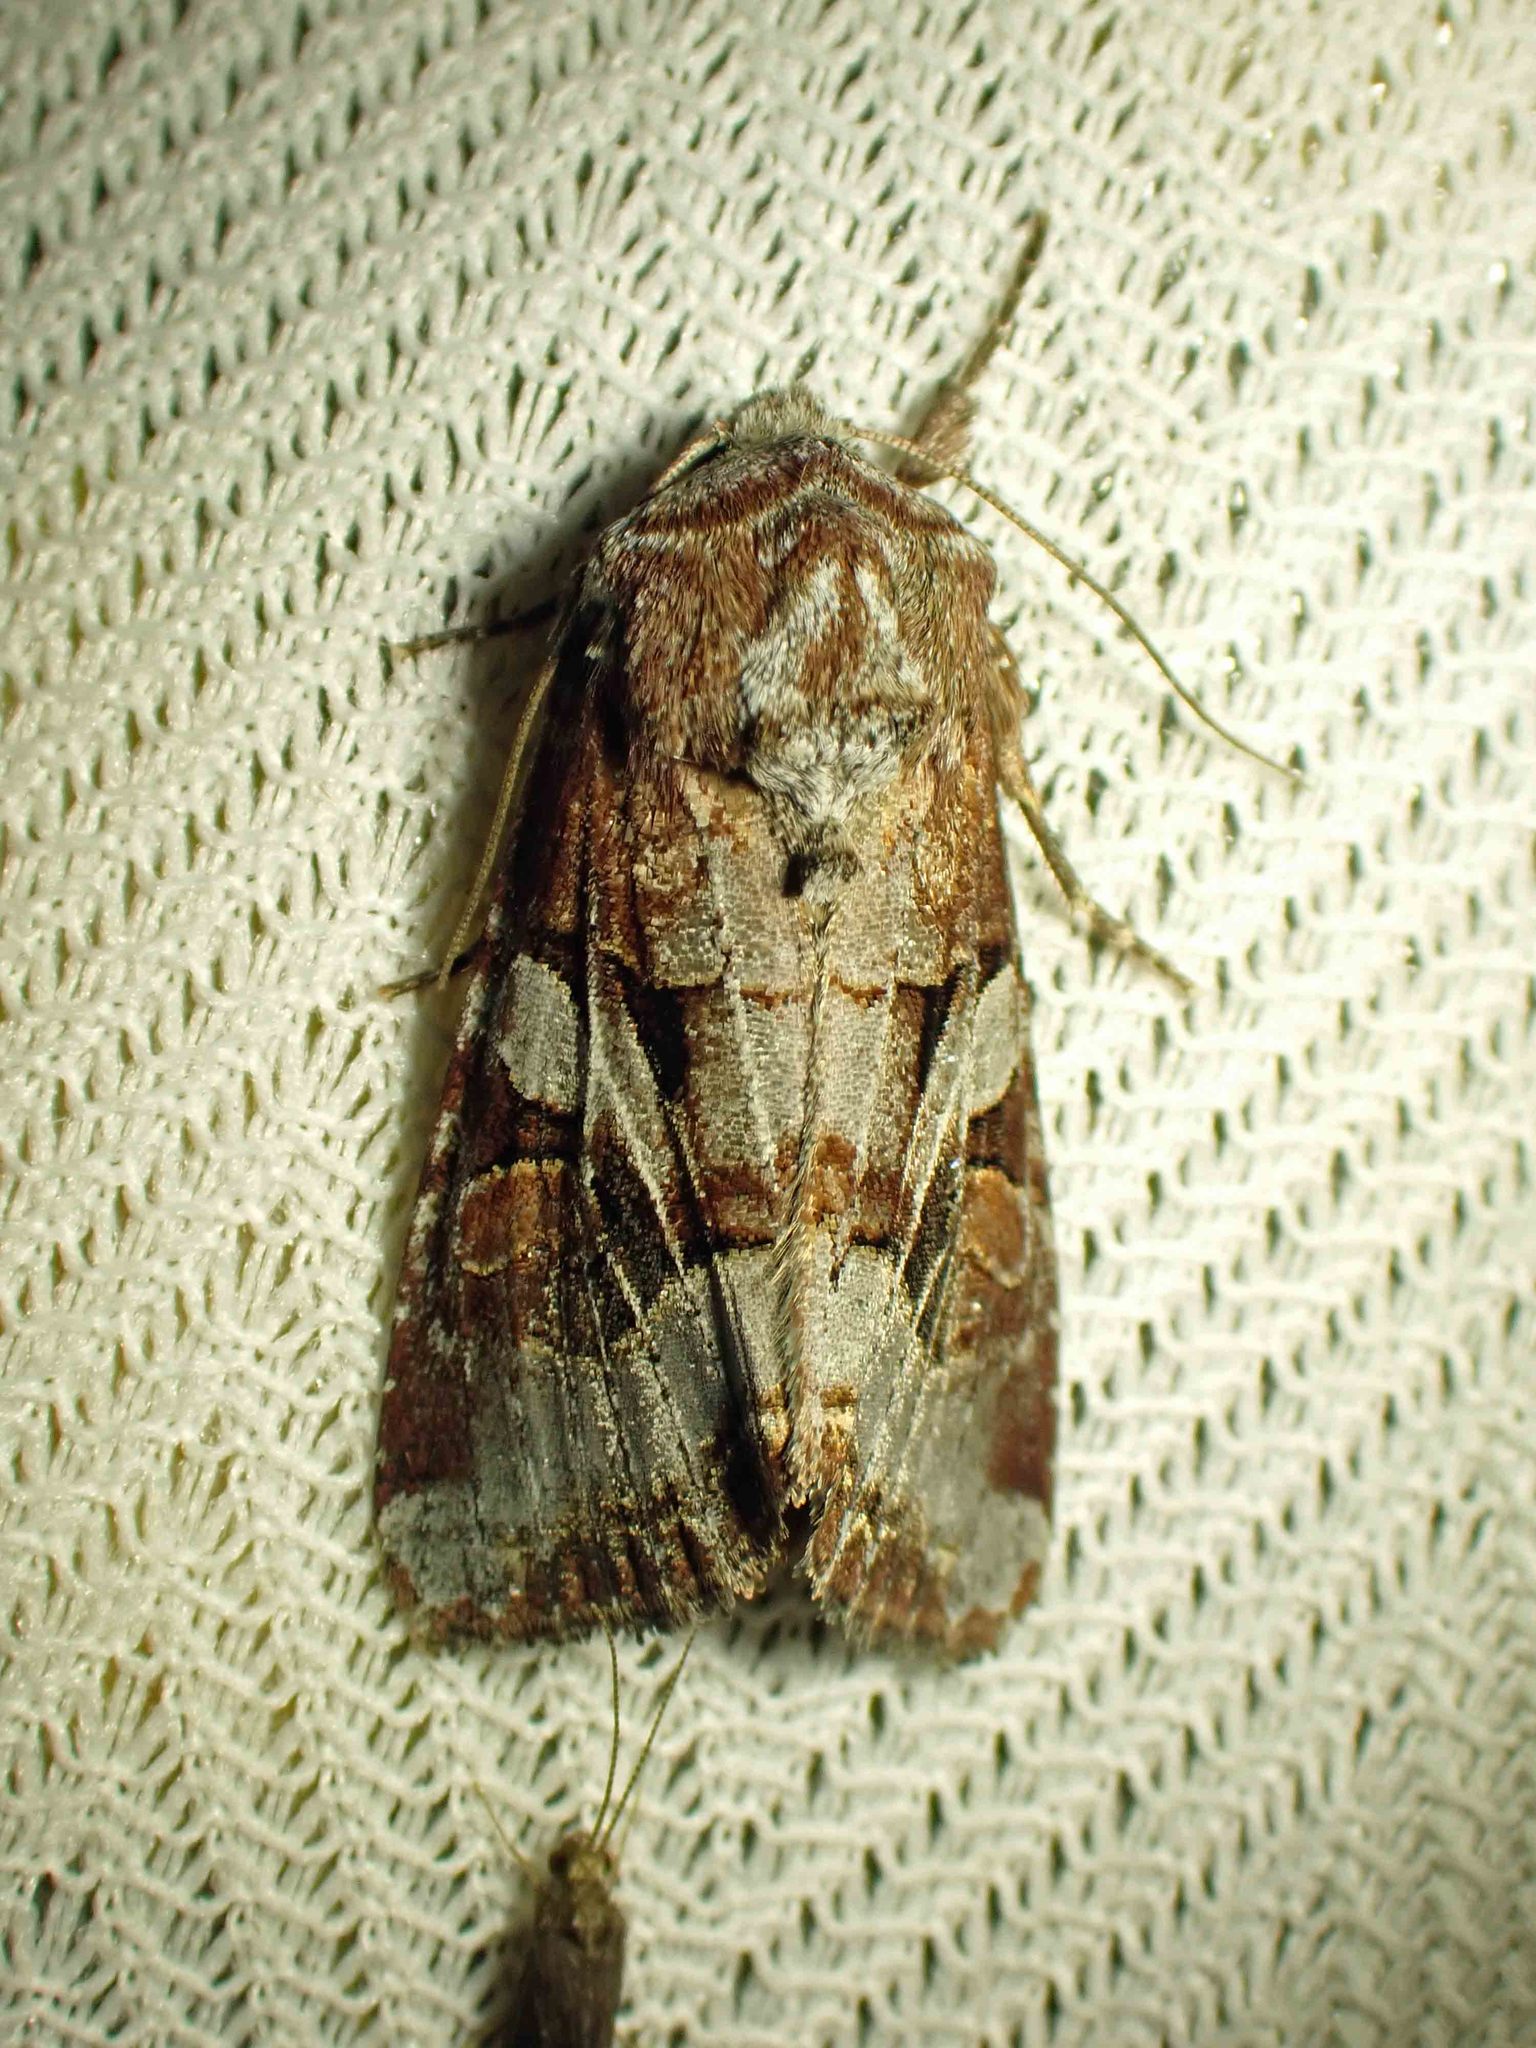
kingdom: Animalia
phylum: Arthropoda
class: Insecta
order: Lepidoptera
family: Noctuidae
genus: Trichordestra
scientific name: Trichordestra tacoma
